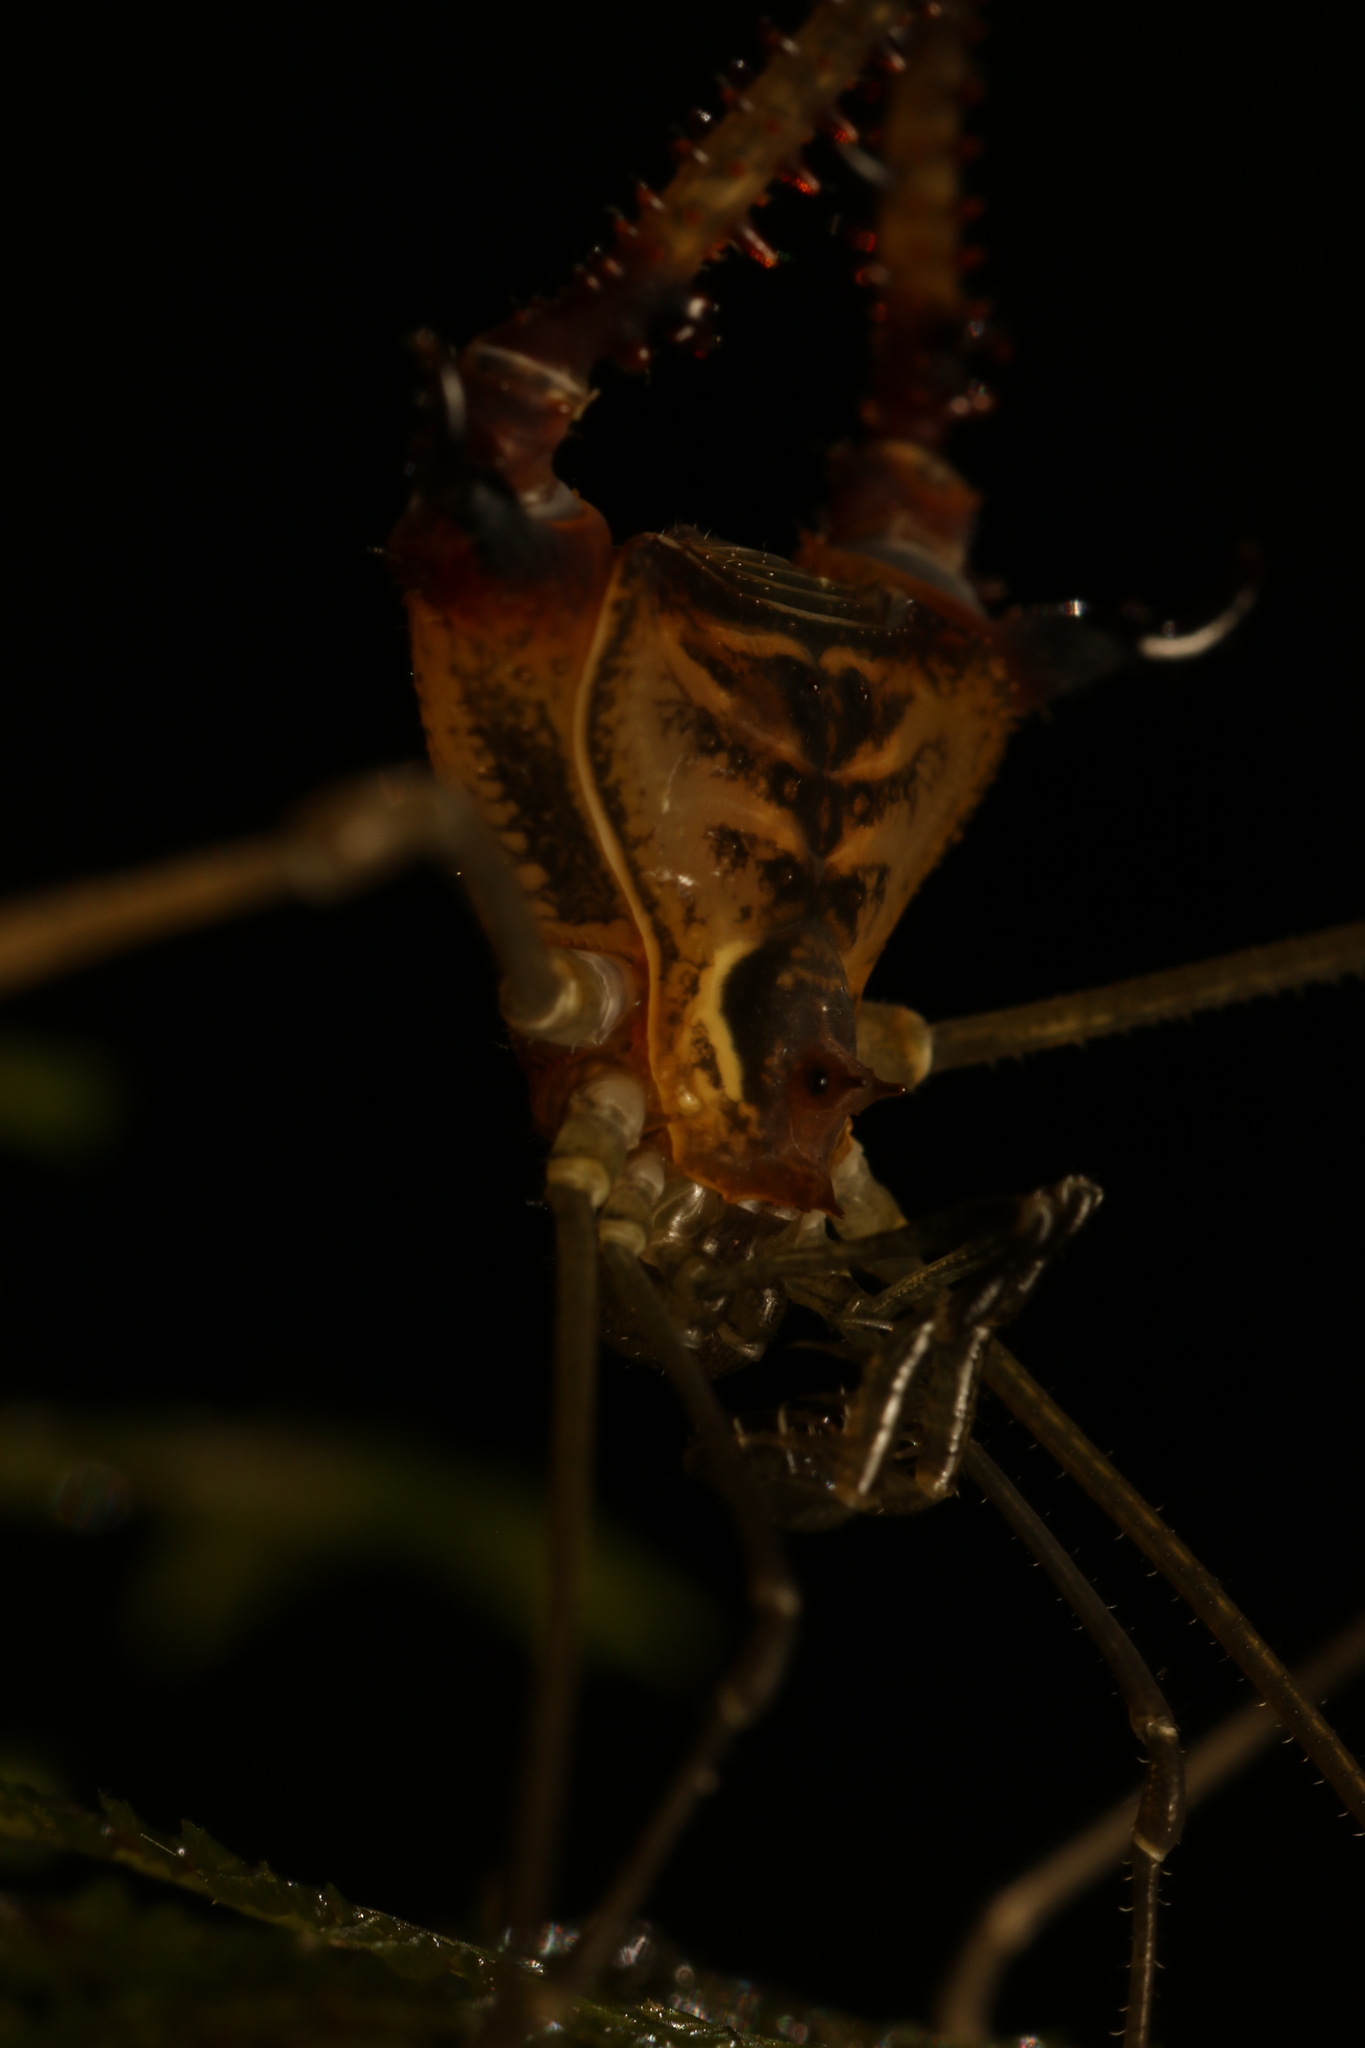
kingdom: Animalia
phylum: Arthropoda
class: Arachnida
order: Opiliones
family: Gonyleptidae
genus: Progonyleptoidellus
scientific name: Progonyleptoidellus striatus
